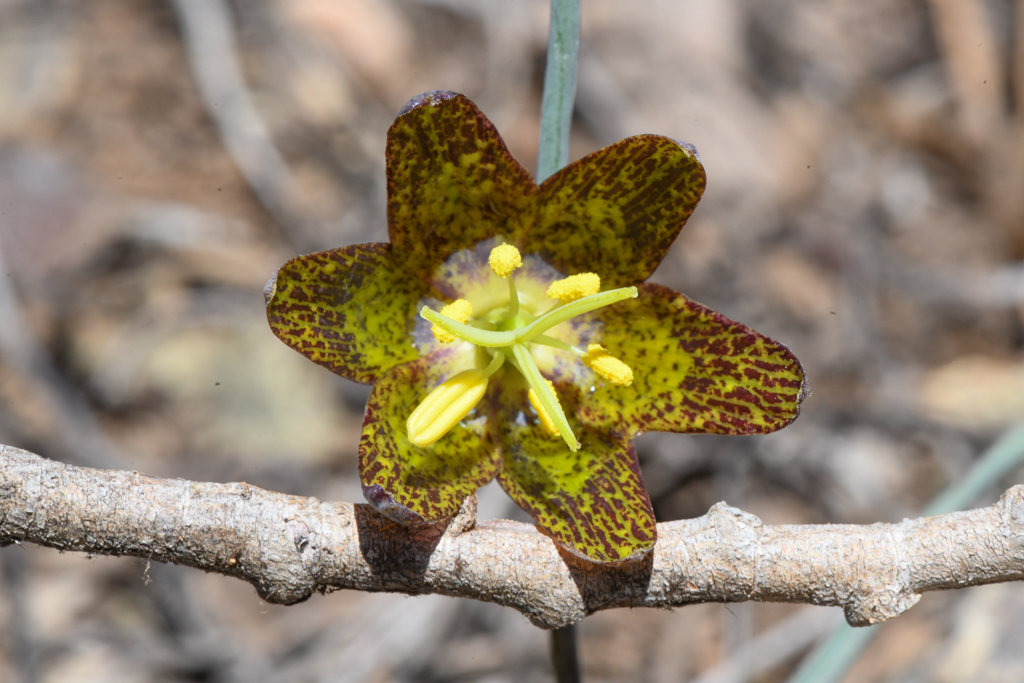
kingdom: Plantae
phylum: Tracheophyta
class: Liliopsida
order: Liliales
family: Liliaceae
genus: Fritillaria
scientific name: Fritillaria atropurpurea
